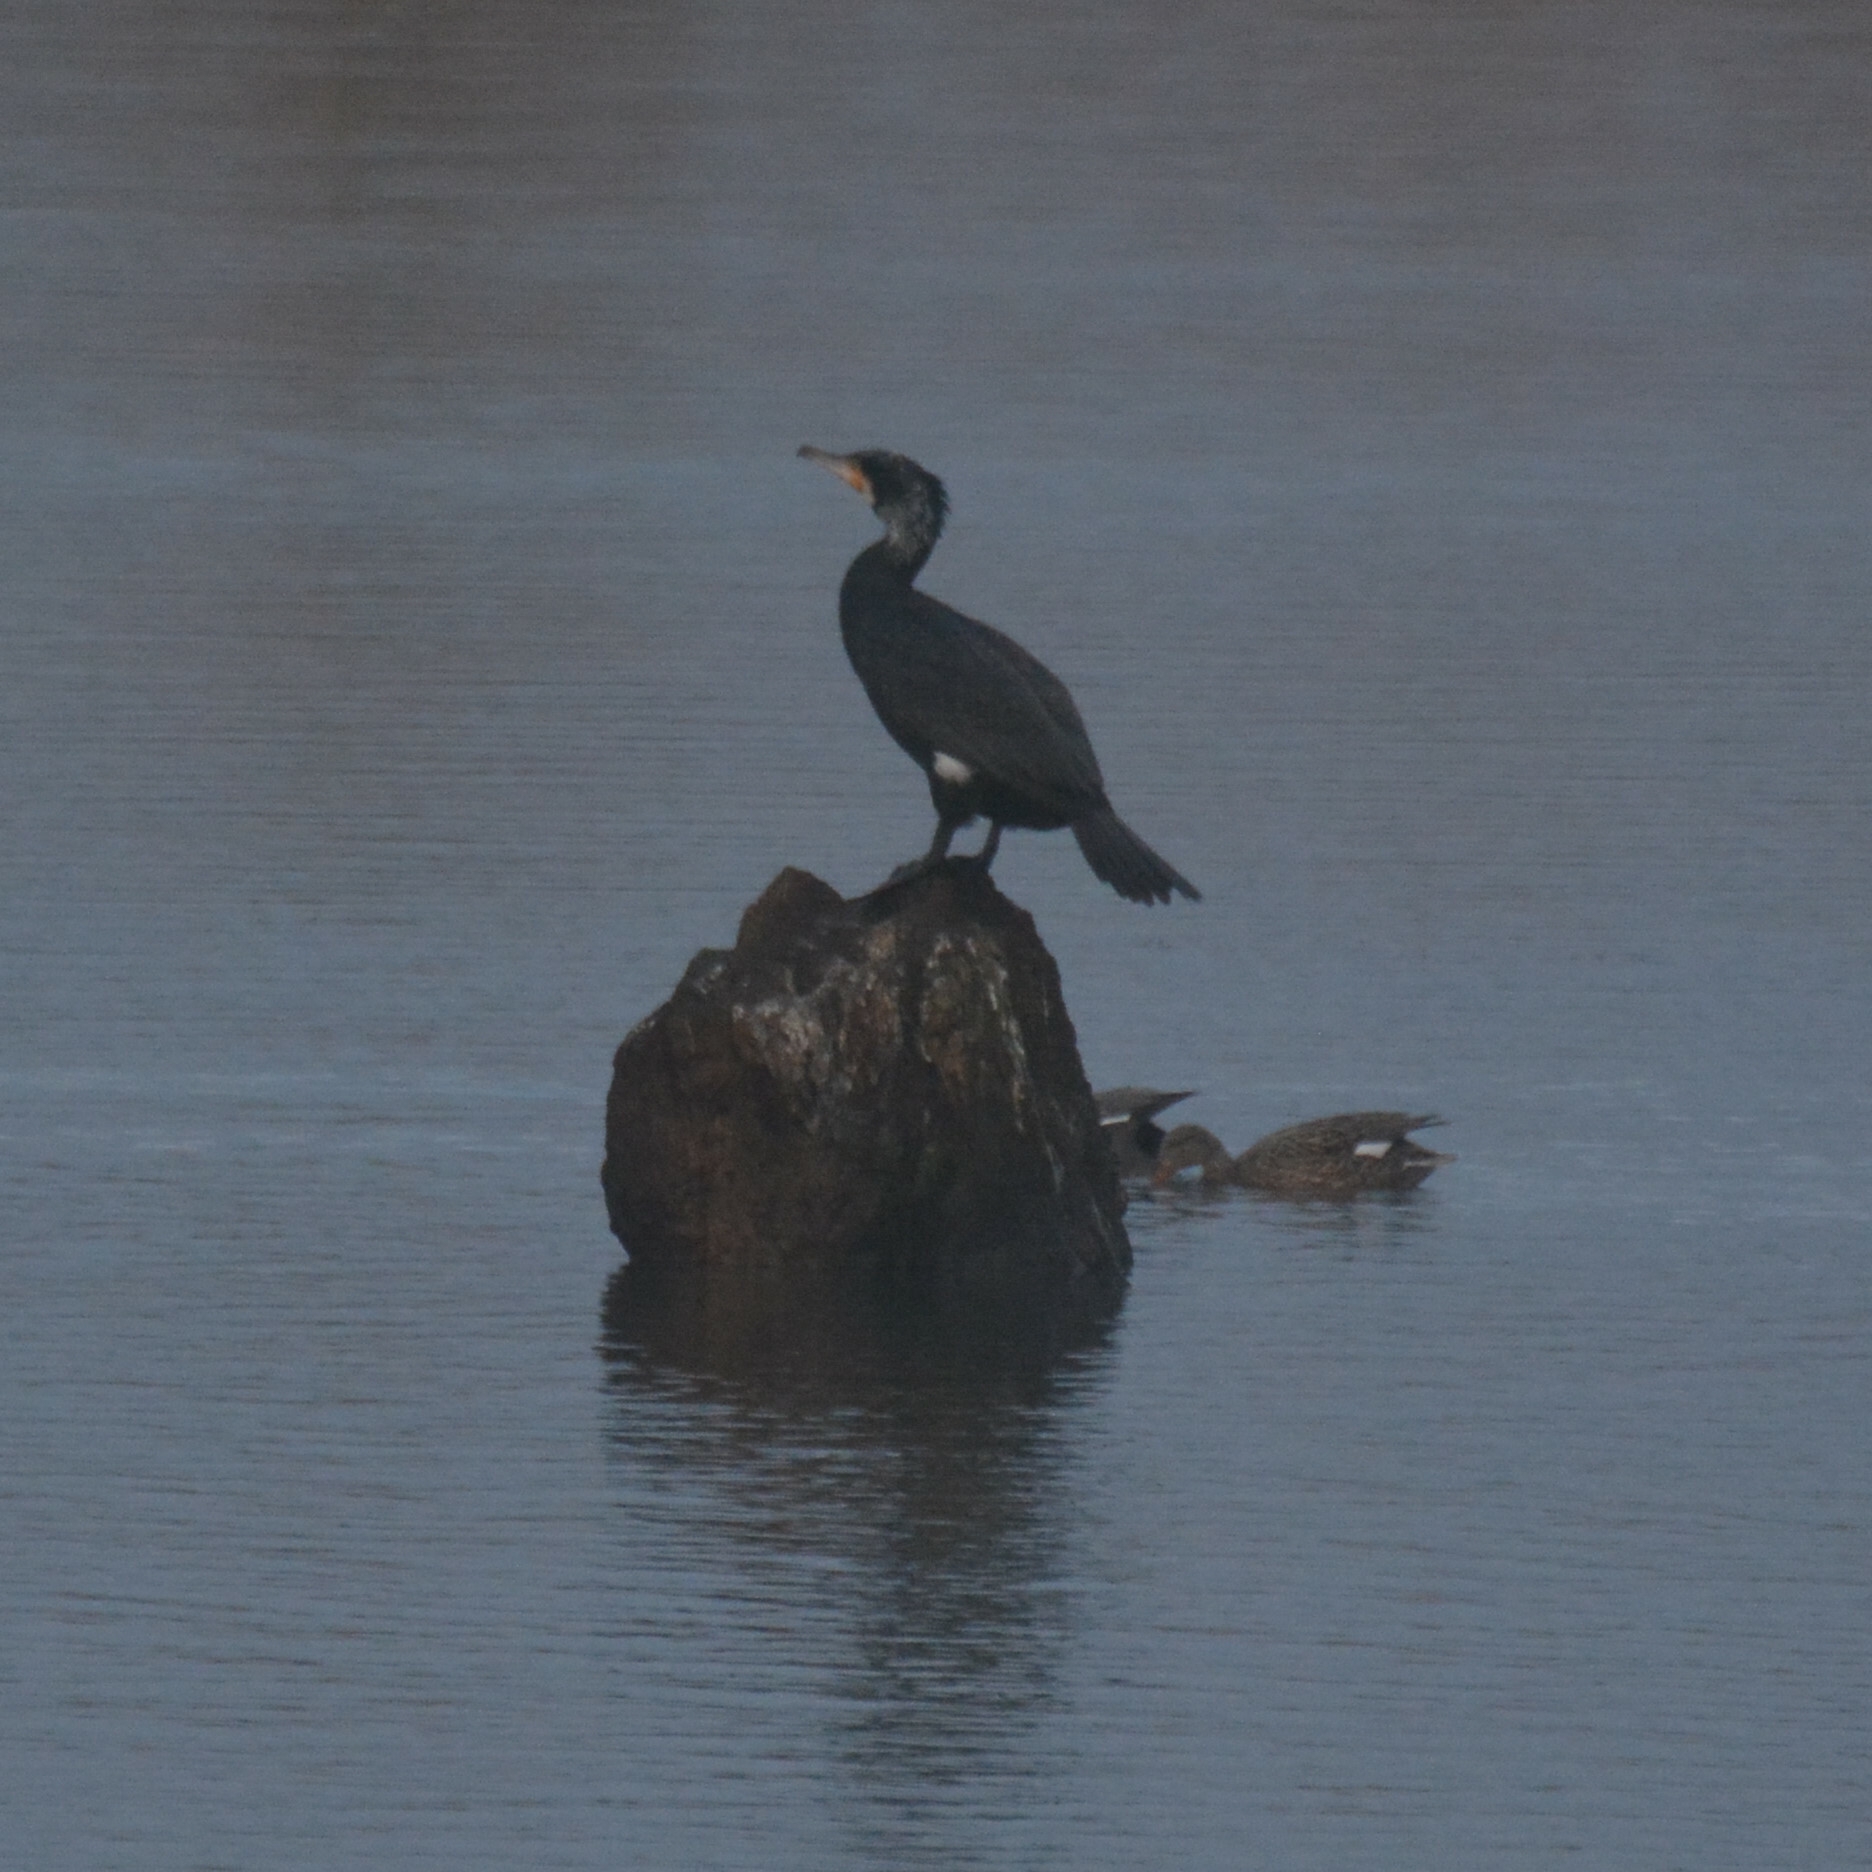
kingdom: Animalia
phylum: Chordata
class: Aves
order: Suliformes
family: Phalacrocoracidae
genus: Phalacrocorax
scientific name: Phalacrocorax carbo
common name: Great cormorant
